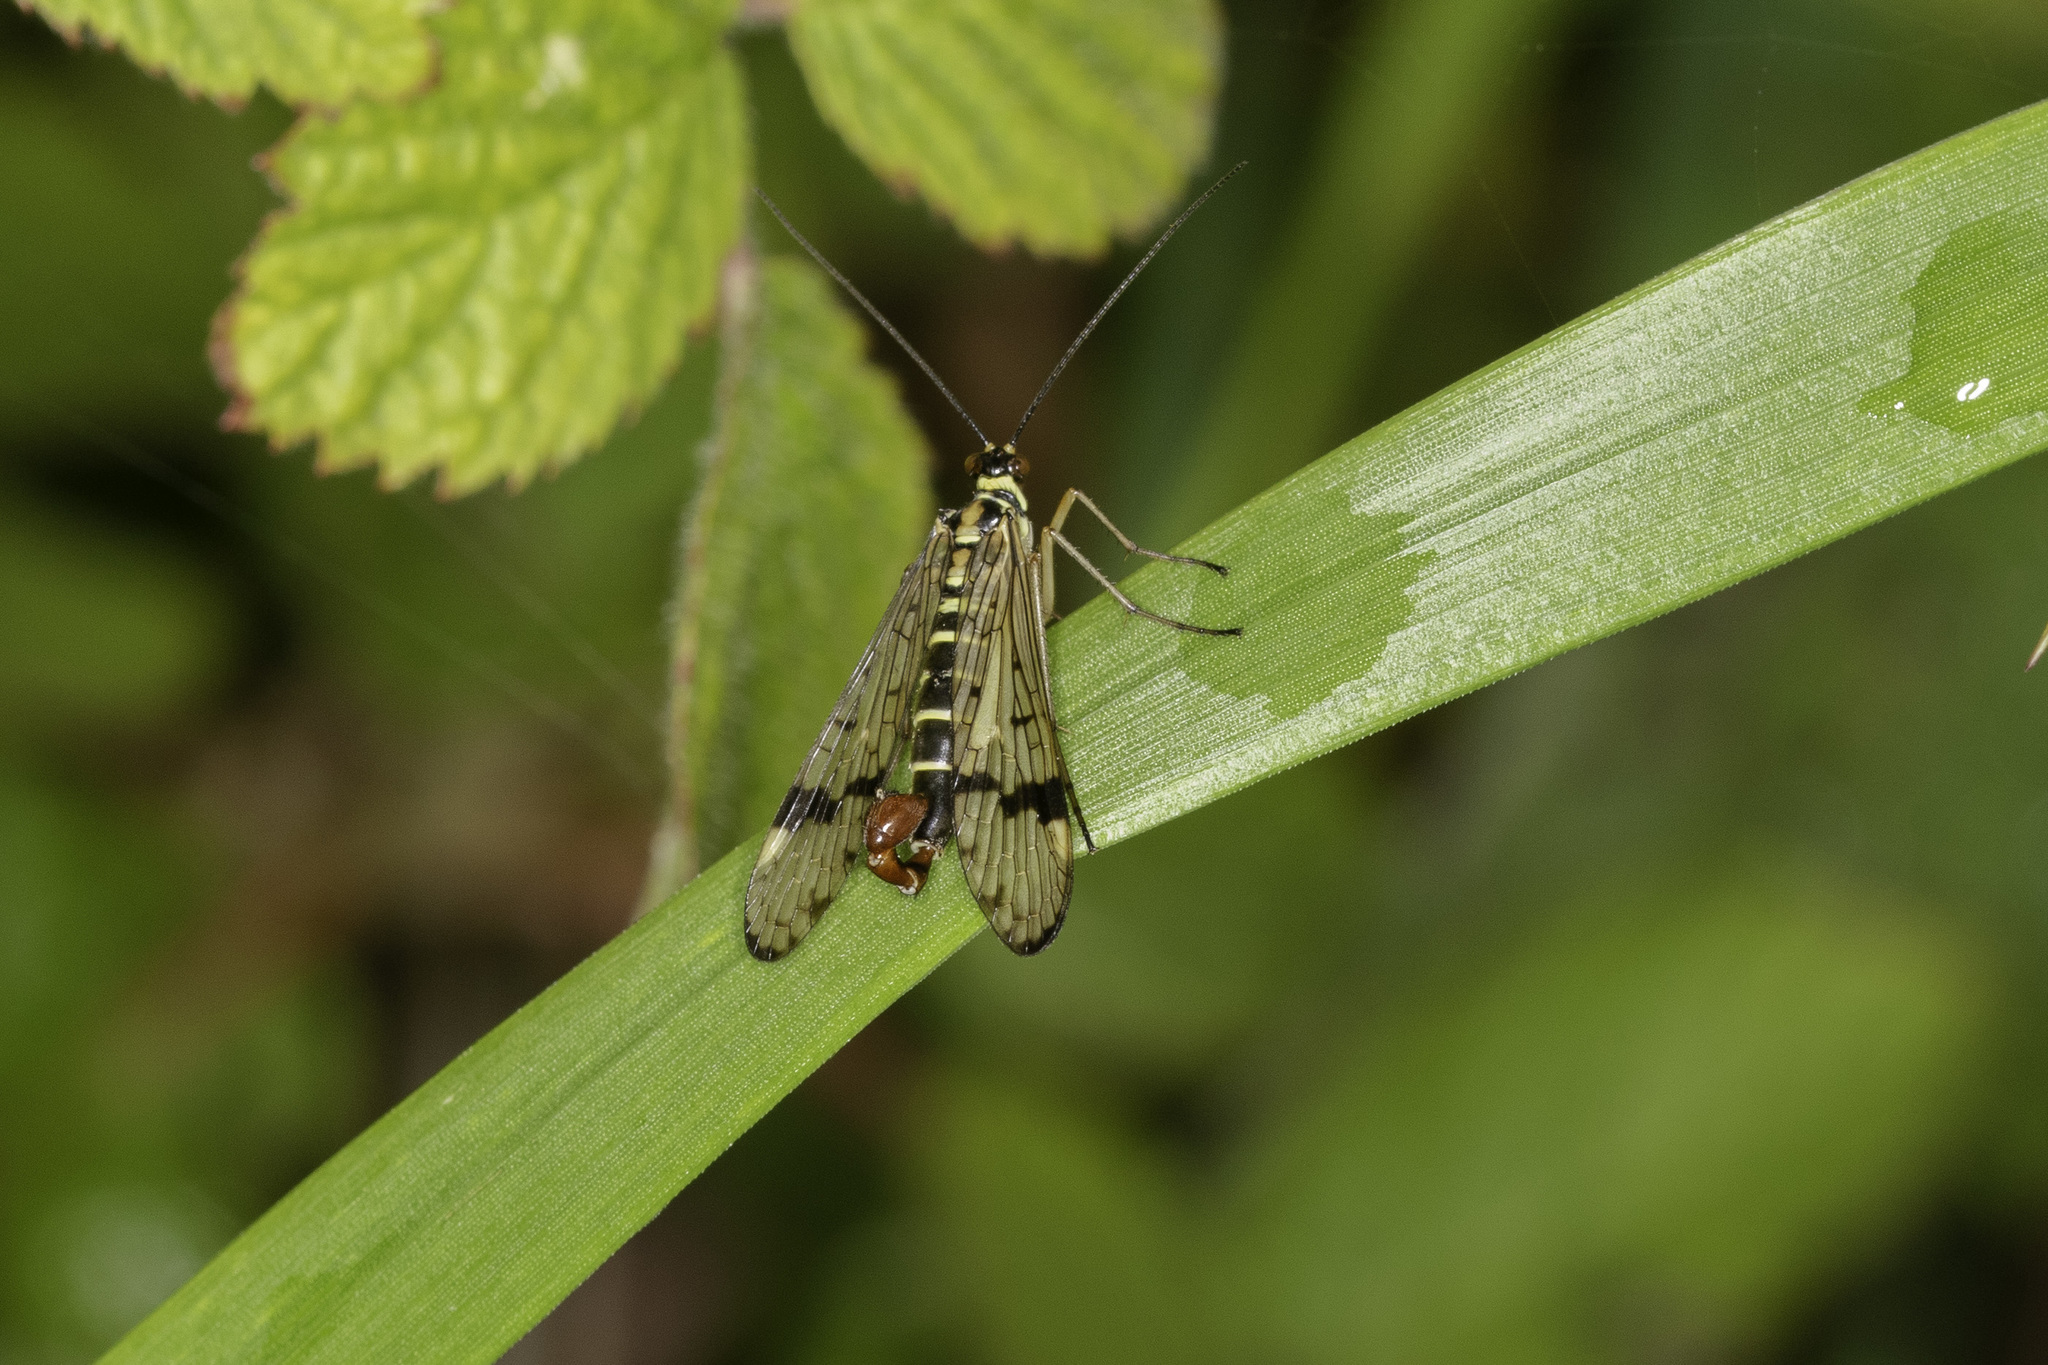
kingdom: Animalia
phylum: Arthropoda
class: Insecta
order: Mecoptera
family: Panorpidae
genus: Panorpa
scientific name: Panorpa communis
